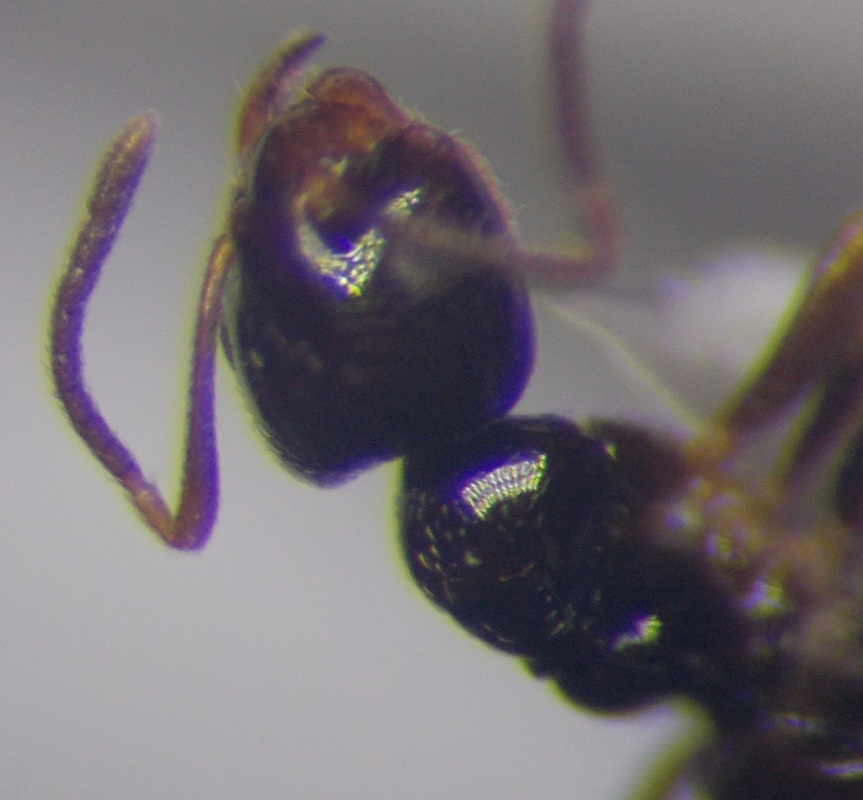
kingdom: Animalia
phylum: Arthropoda
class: Insecta
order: Hymenoptera
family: Formicidae
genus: Plagiolepis
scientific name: Plagiolepis pallescens
